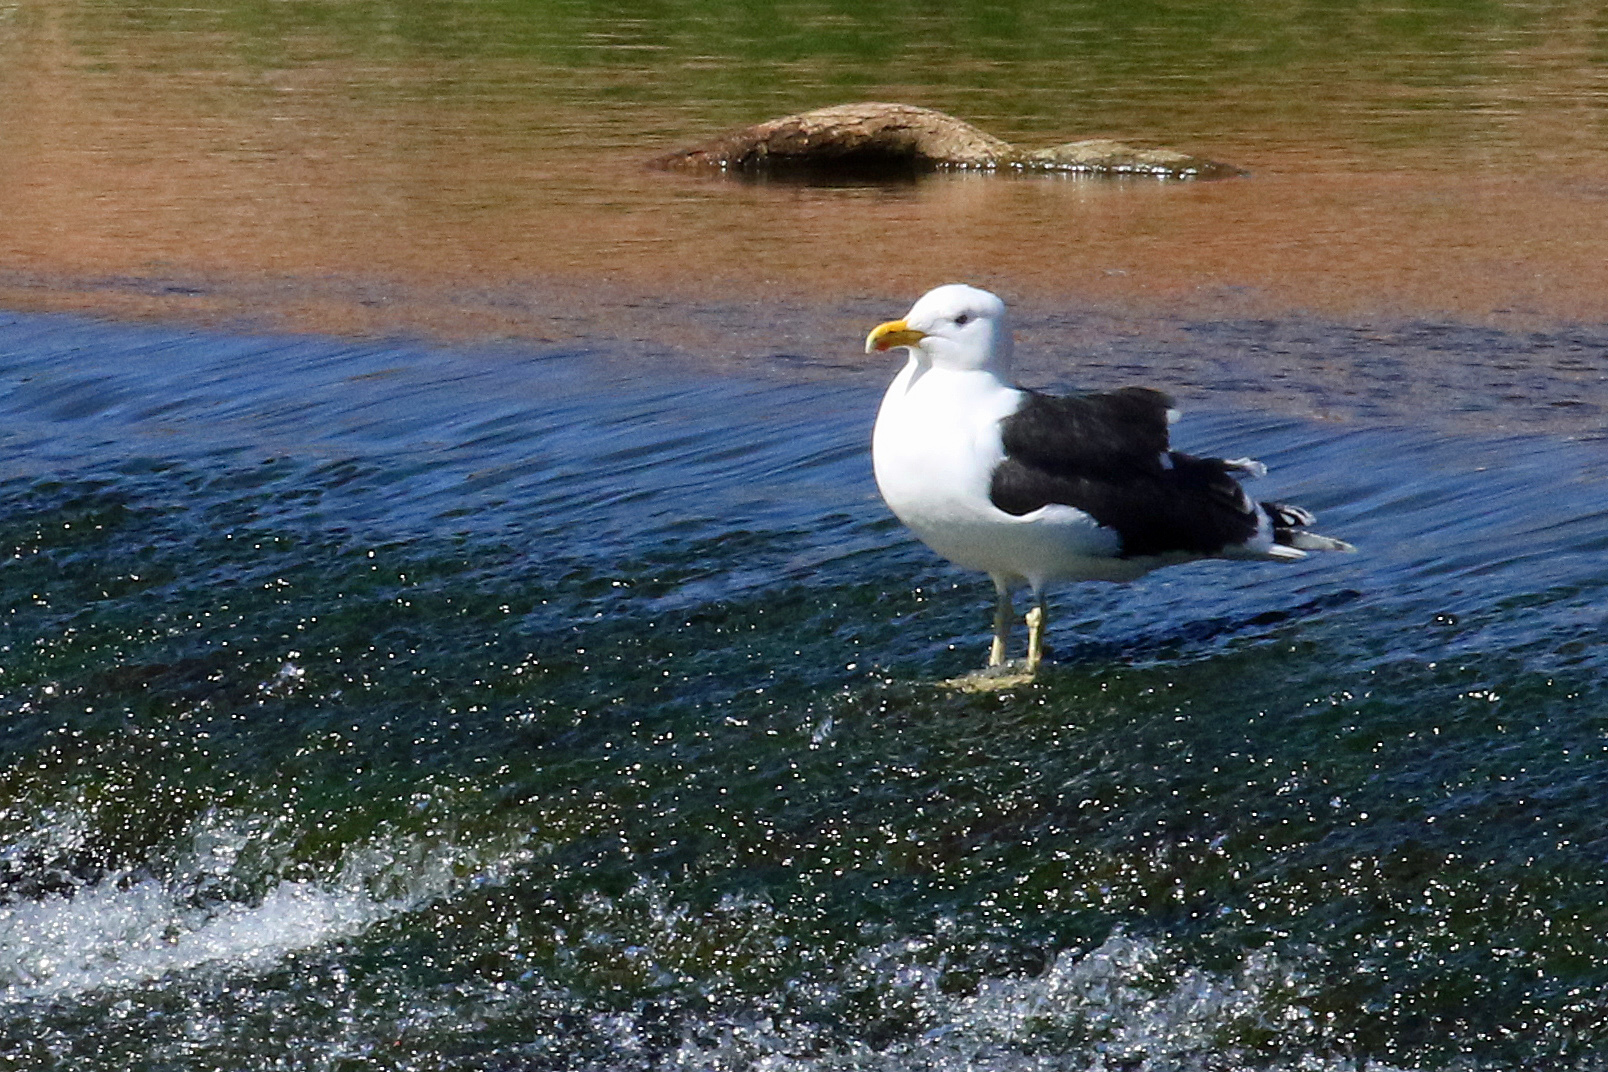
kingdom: Animalia
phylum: Chordata
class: Aves
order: Charadriiformes
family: Laridae
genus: Larus
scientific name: Larus fuscus
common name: Lesser black-backed gull
